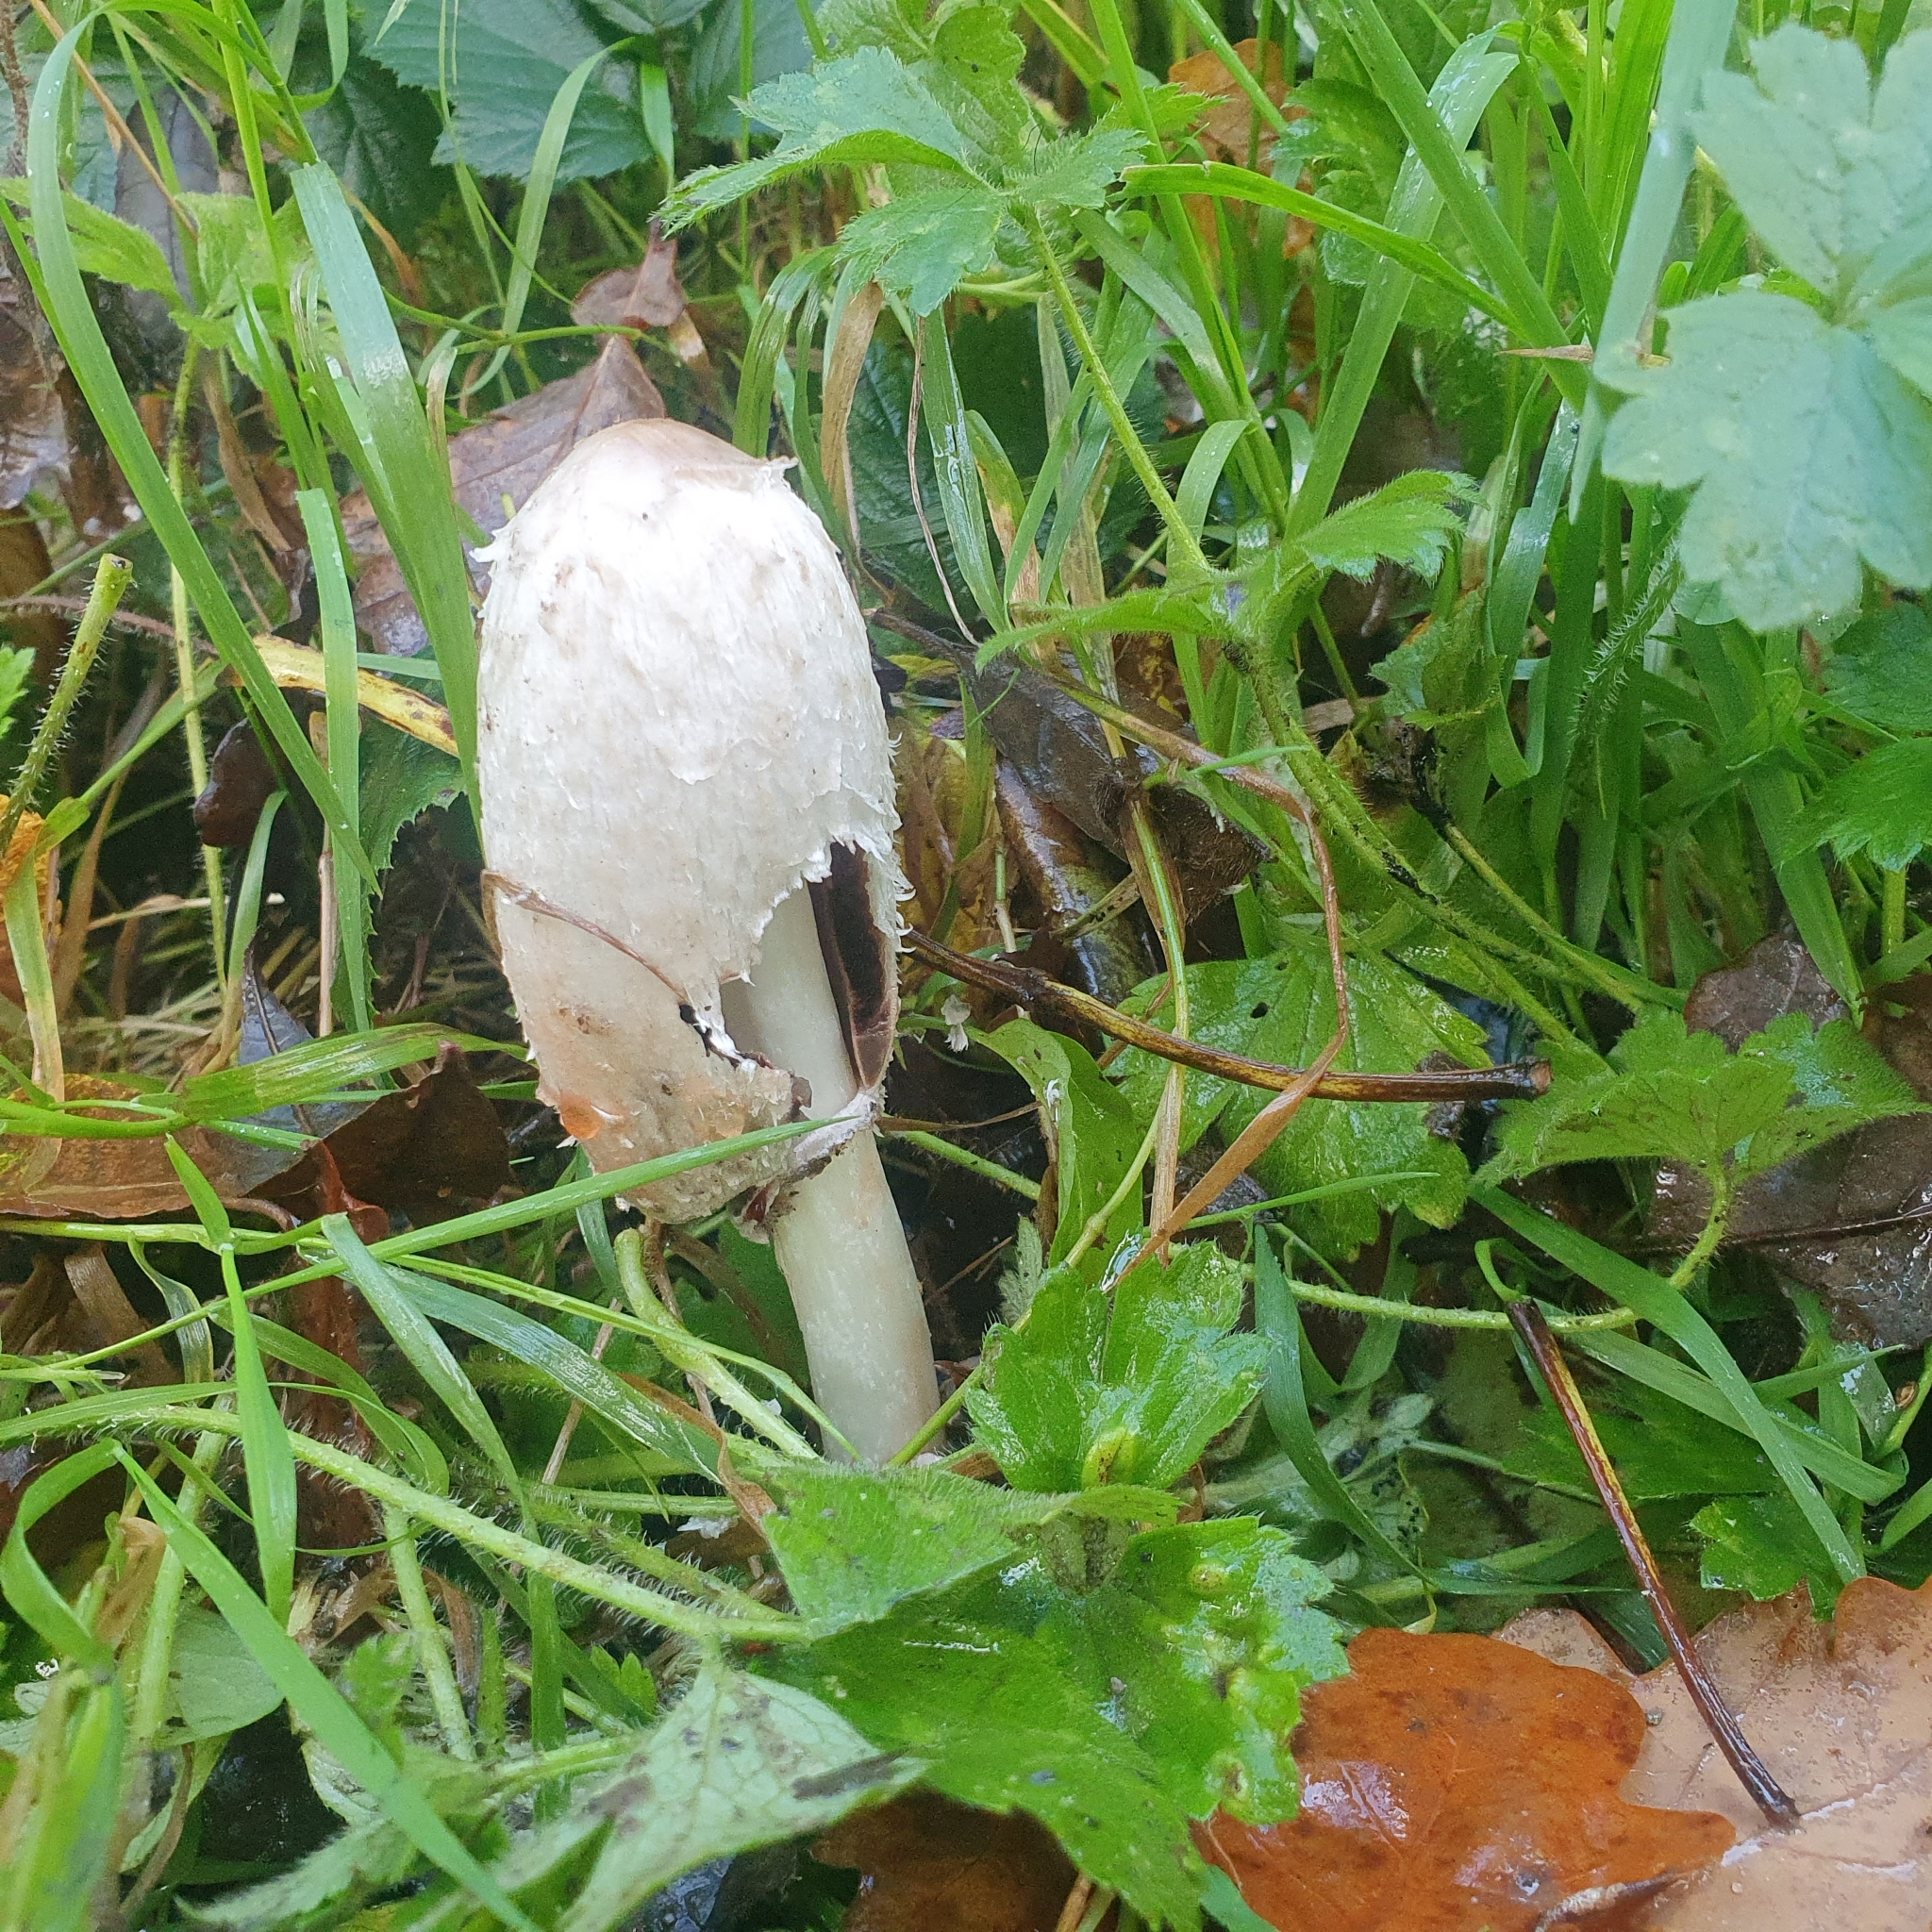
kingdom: Fungi
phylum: Basidiomycota
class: Agaricomycetes
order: Agaricales
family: Agaricaceae
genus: Coprinus
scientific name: Coprinus comatus
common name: Lawyer's wig
